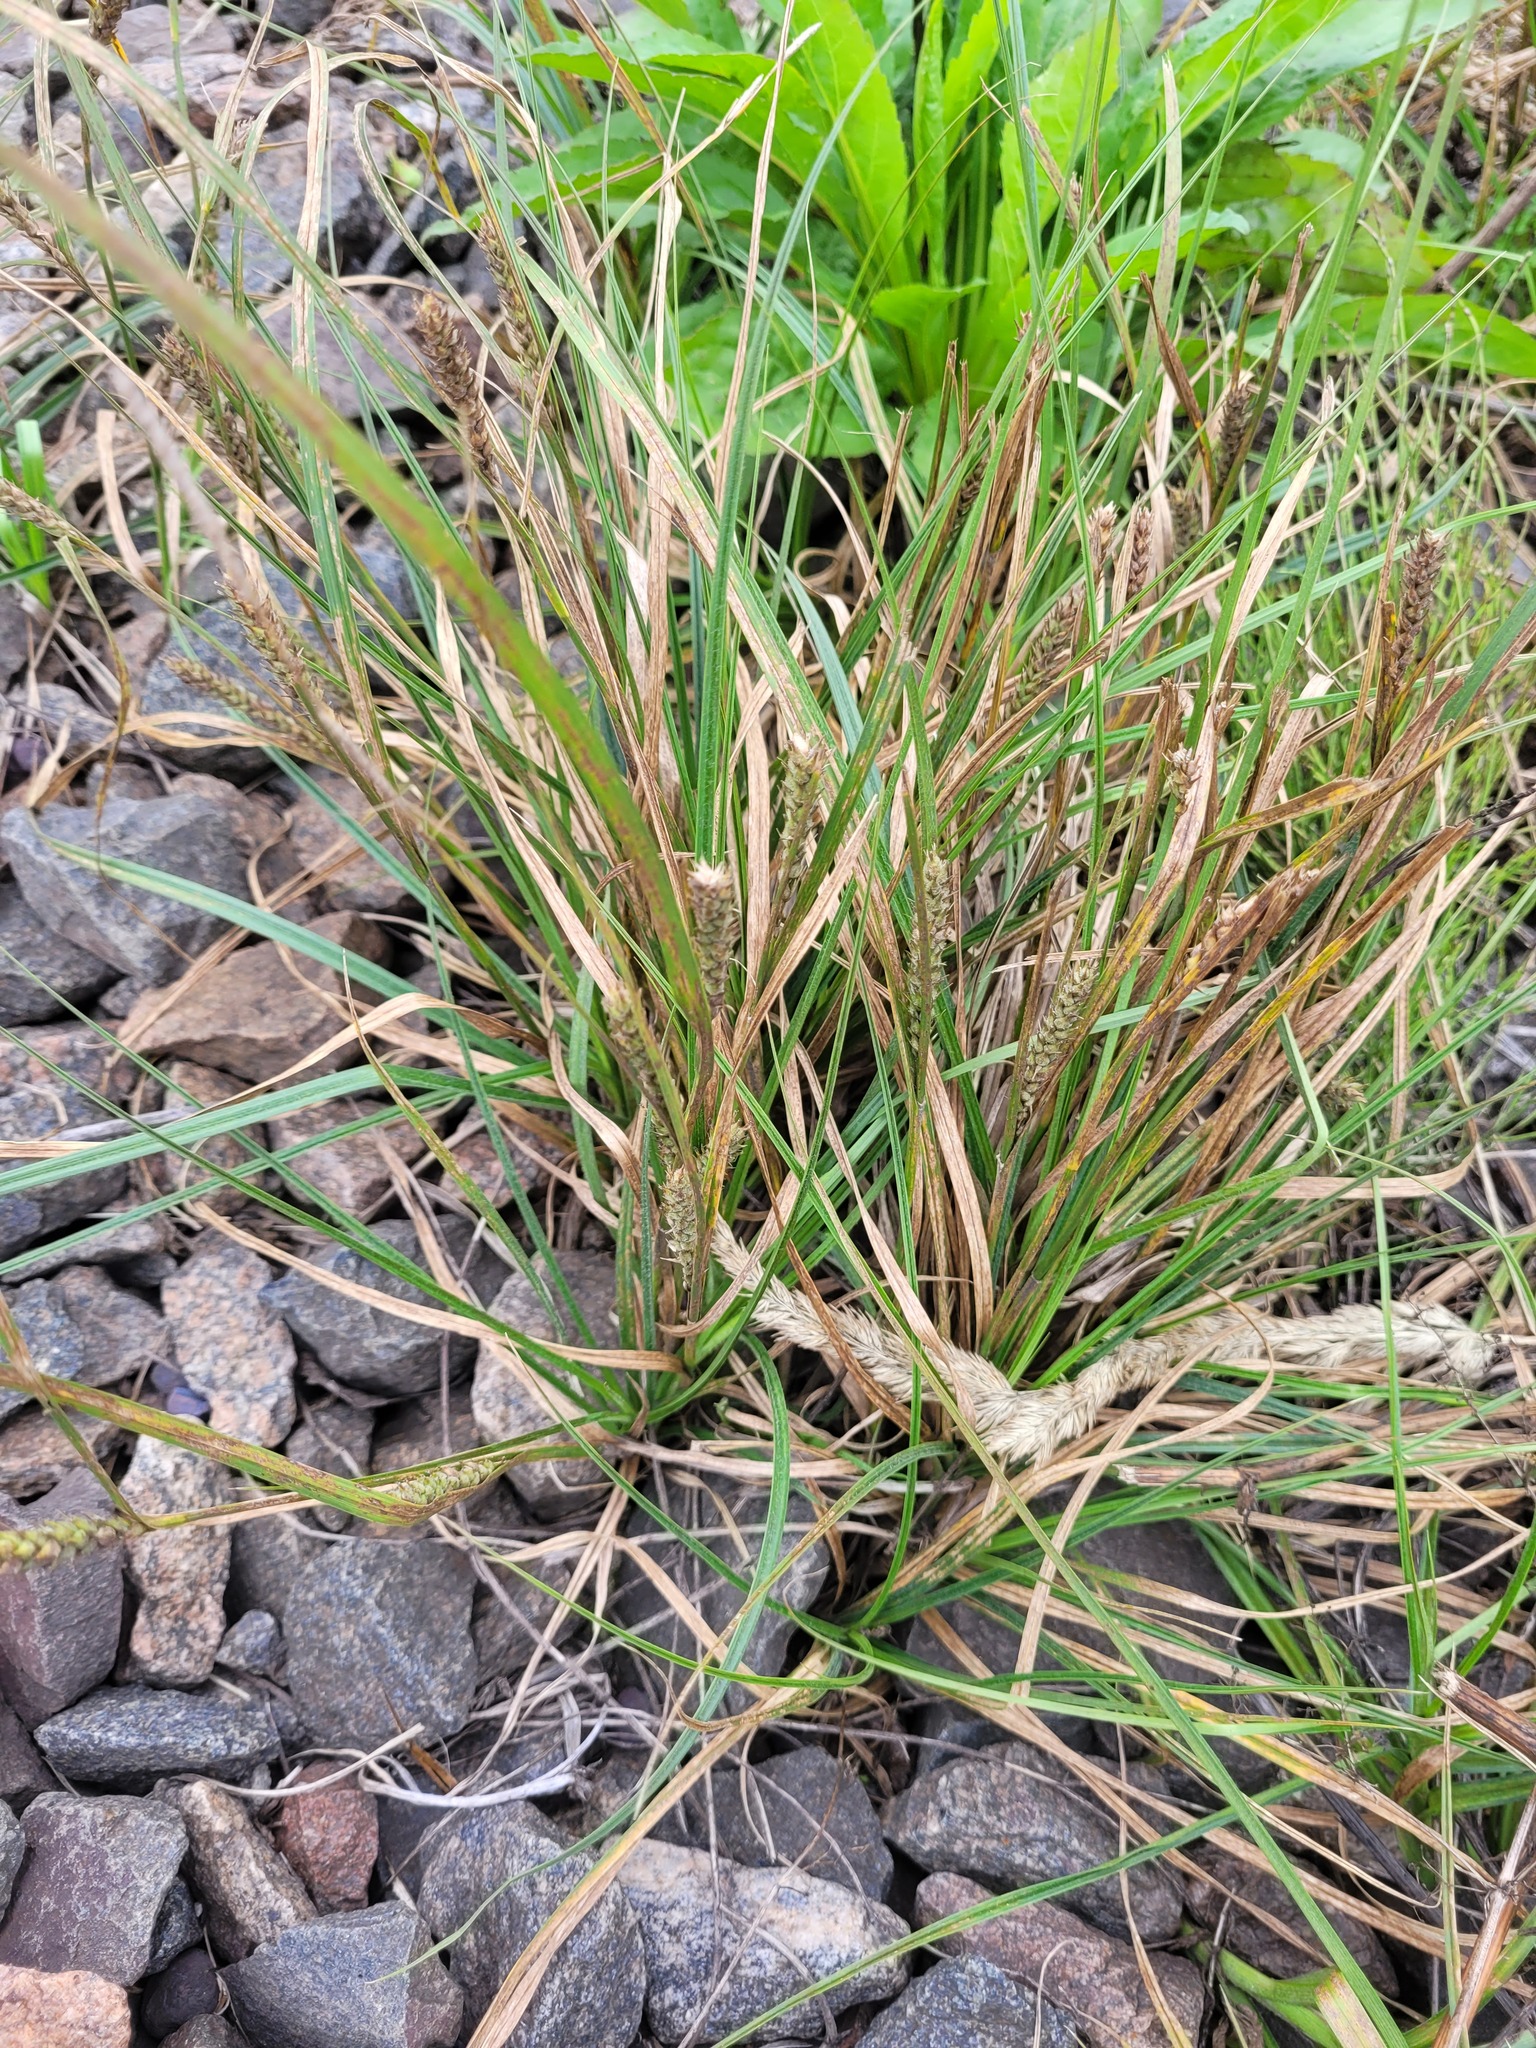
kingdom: Plantae
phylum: Tracheophyta
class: Liliopsida
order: Poales
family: Cyperaceae
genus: Carex
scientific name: Carex hirta
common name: Hairy sedge
